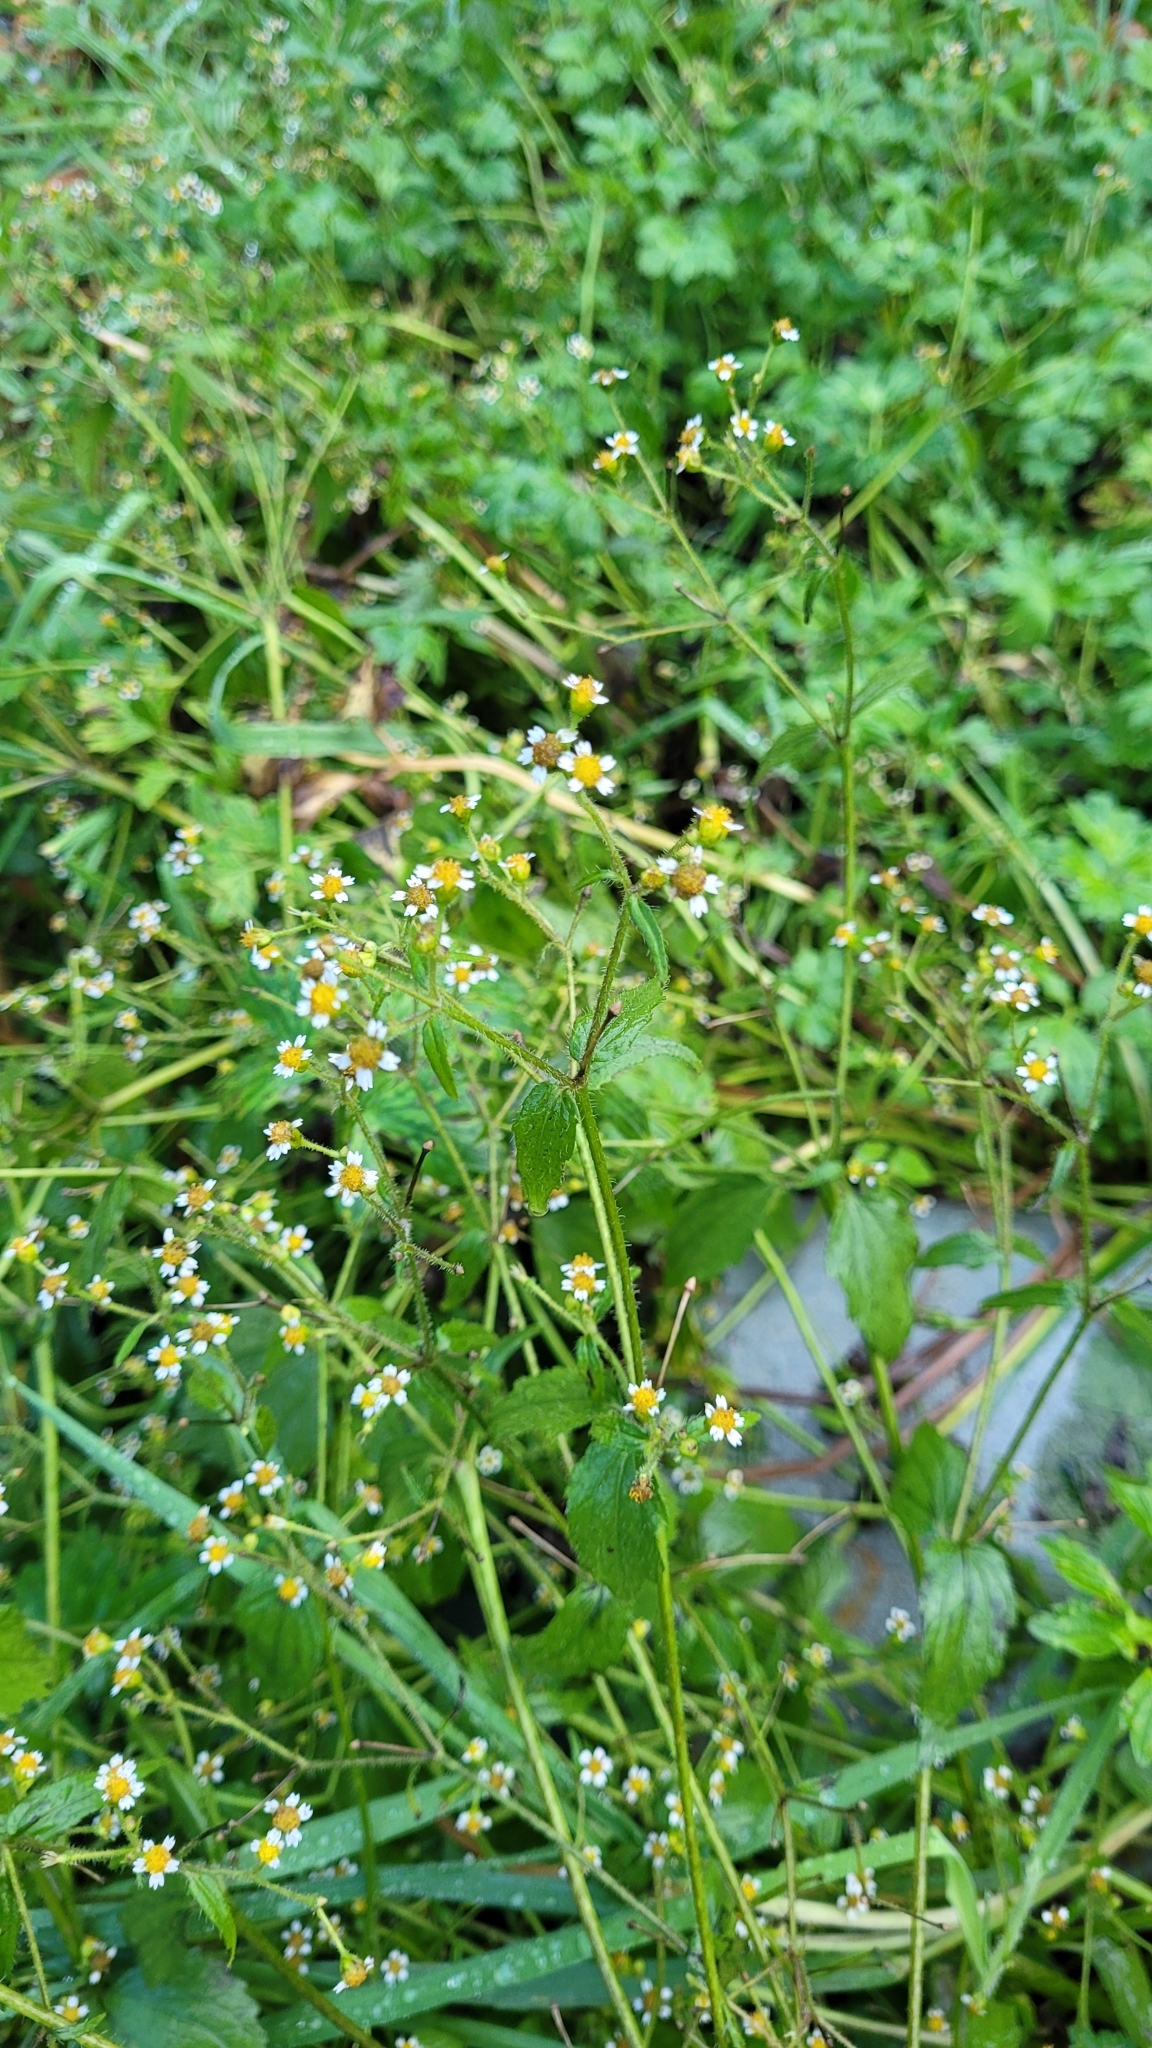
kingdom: Plantae
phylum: Tracheophyta
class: Magnoliopsida
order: Asterales
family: Asteraceae
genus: Galinsoga
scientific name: Galinsoga parviflora
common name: Gallant soldier
